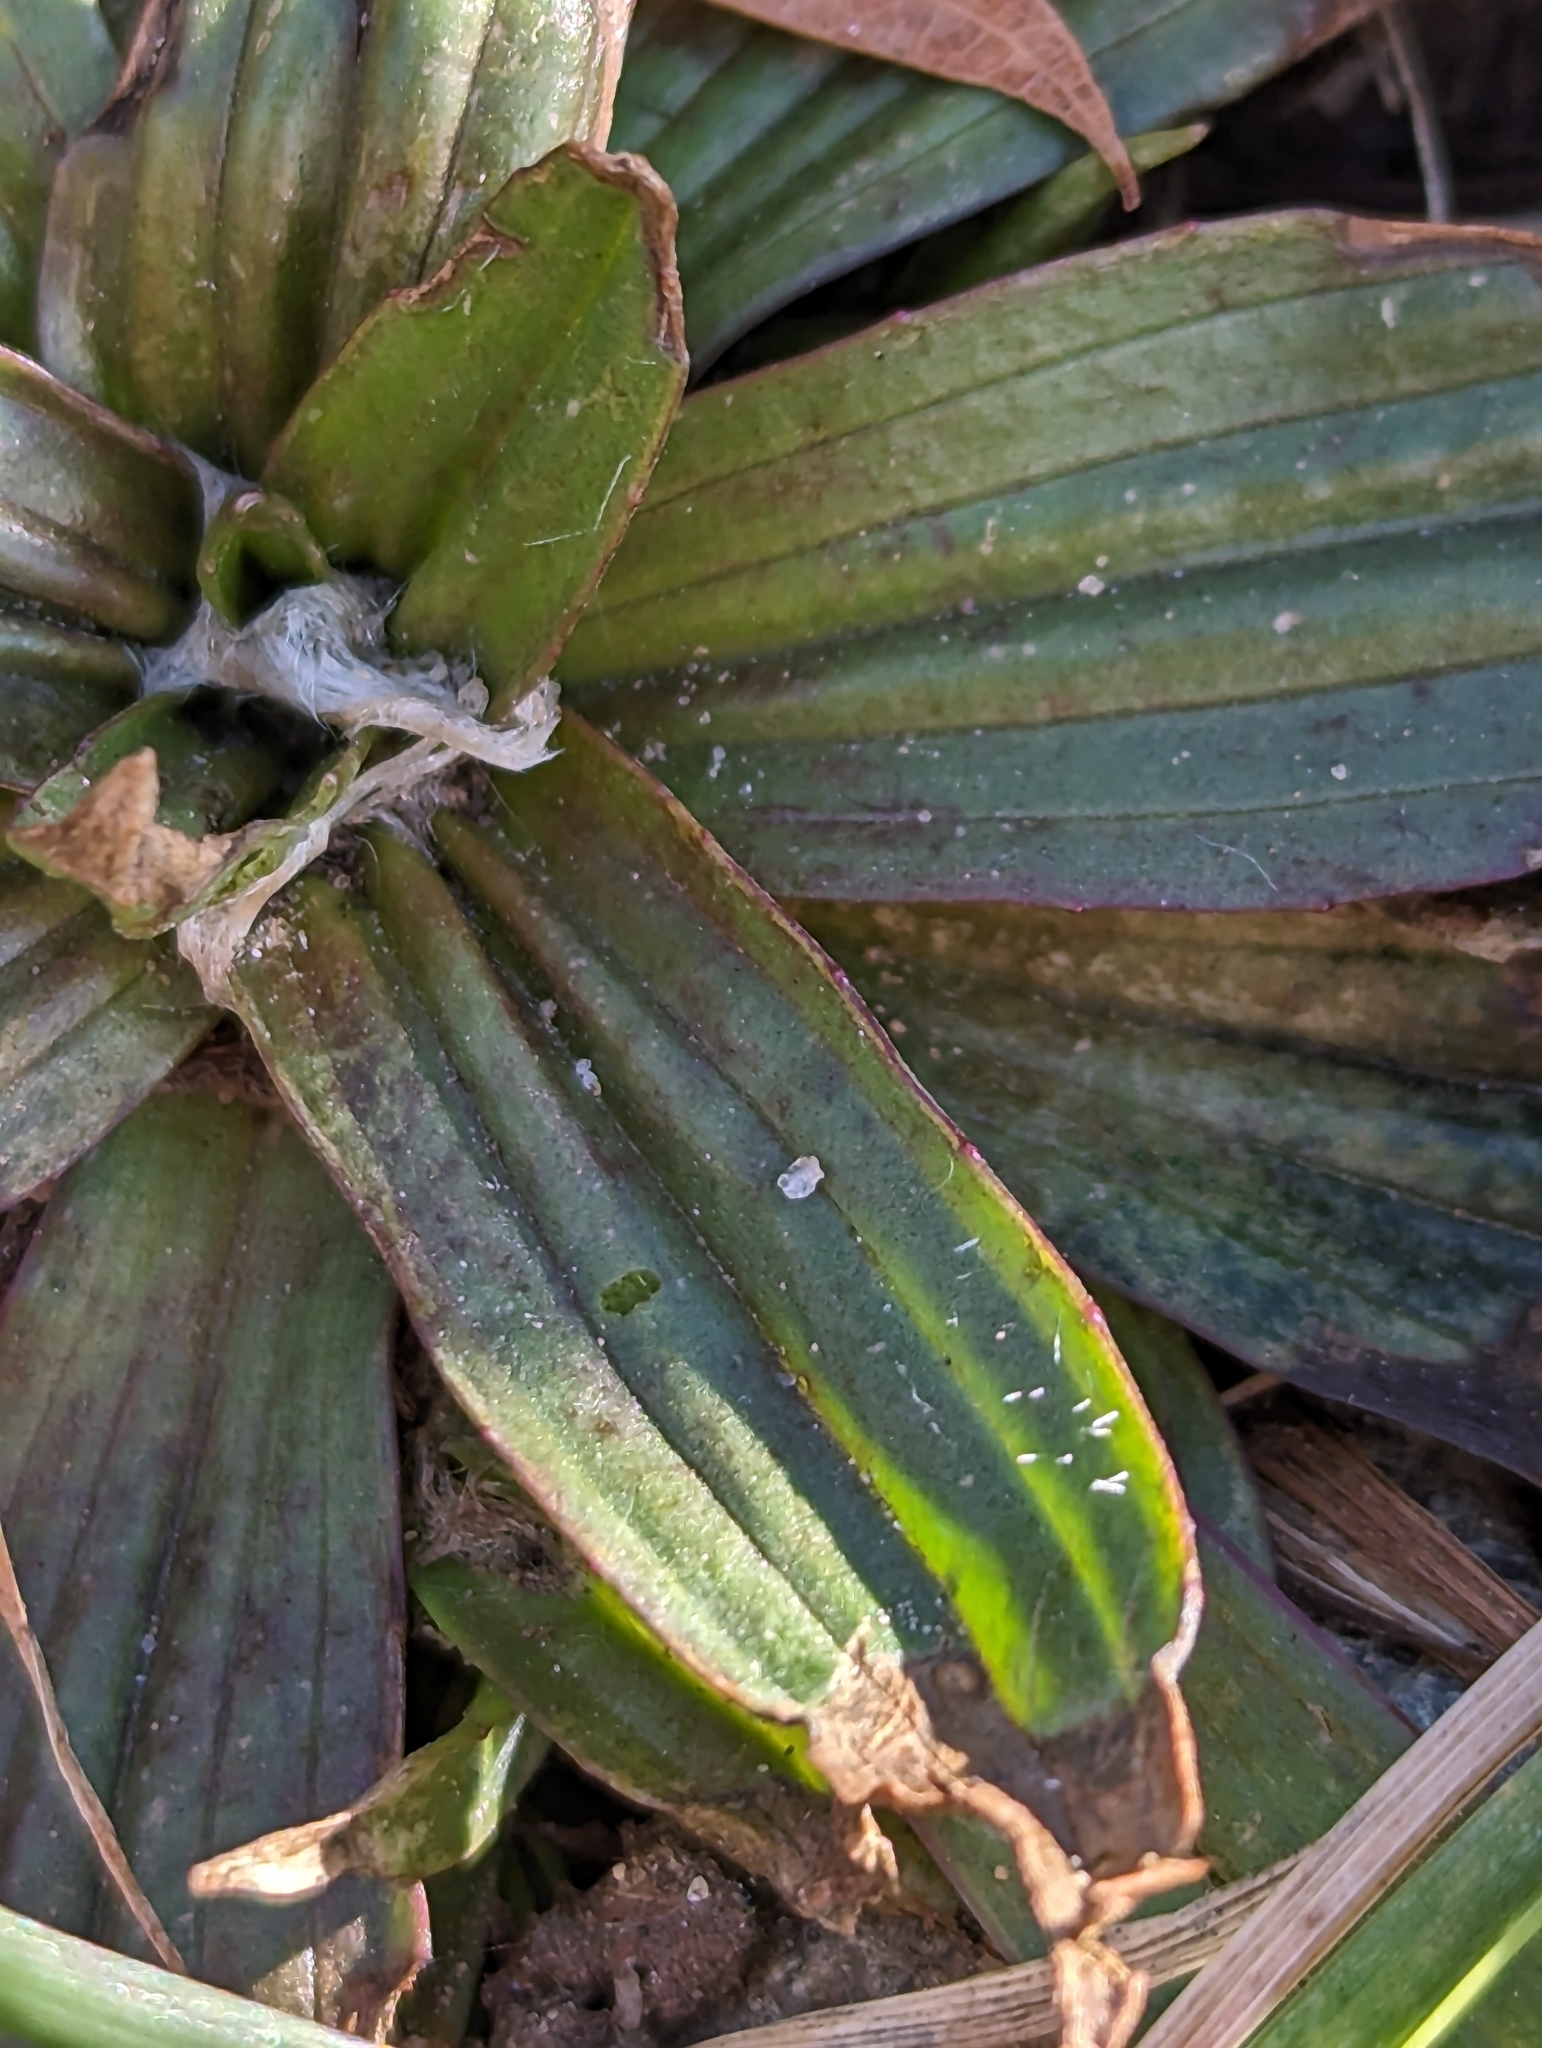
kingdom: Plantae
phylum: Tracheophyta
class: Magnoliopsida
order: Lamiales
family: Plantaginaceae
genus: Plantago
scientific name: Plantago lanceolata
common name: Ribwort plantain
